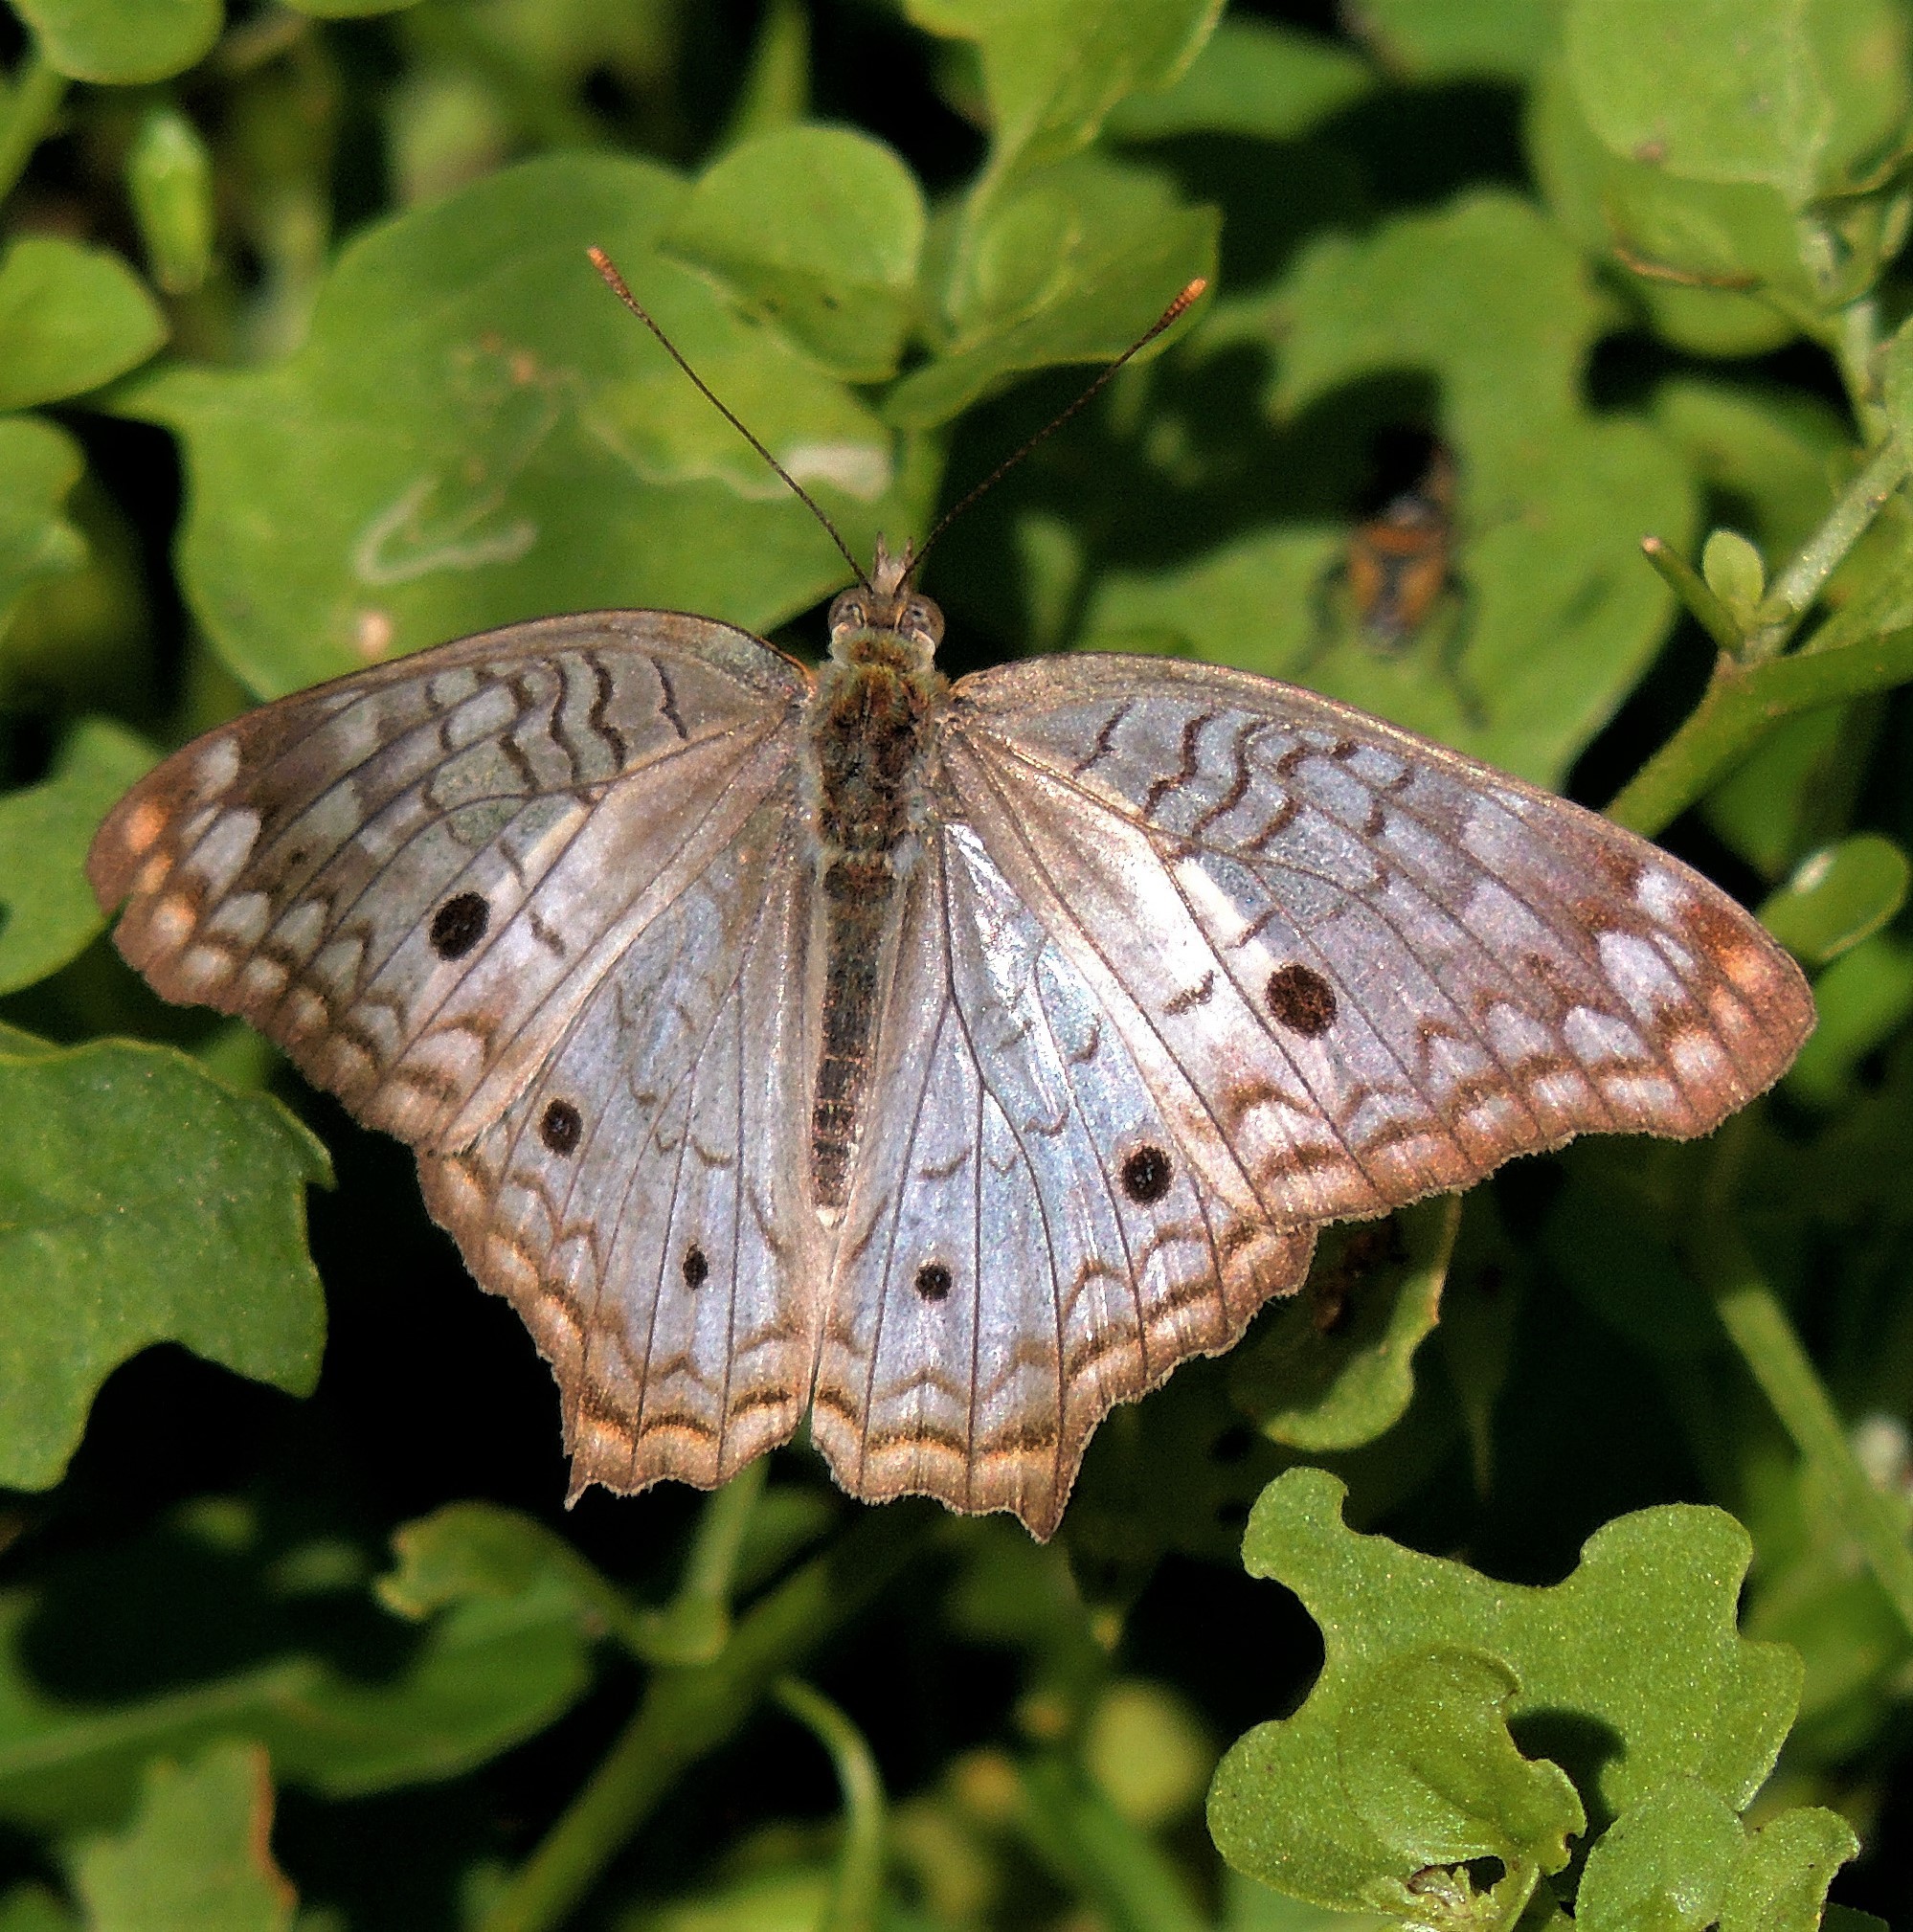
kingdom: Animalia
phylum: Arthropoda
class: Insecta
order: Lepidoptera
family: Nymphalidae
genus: Anartia
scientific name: Anartia jatrophae
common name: White peacock
